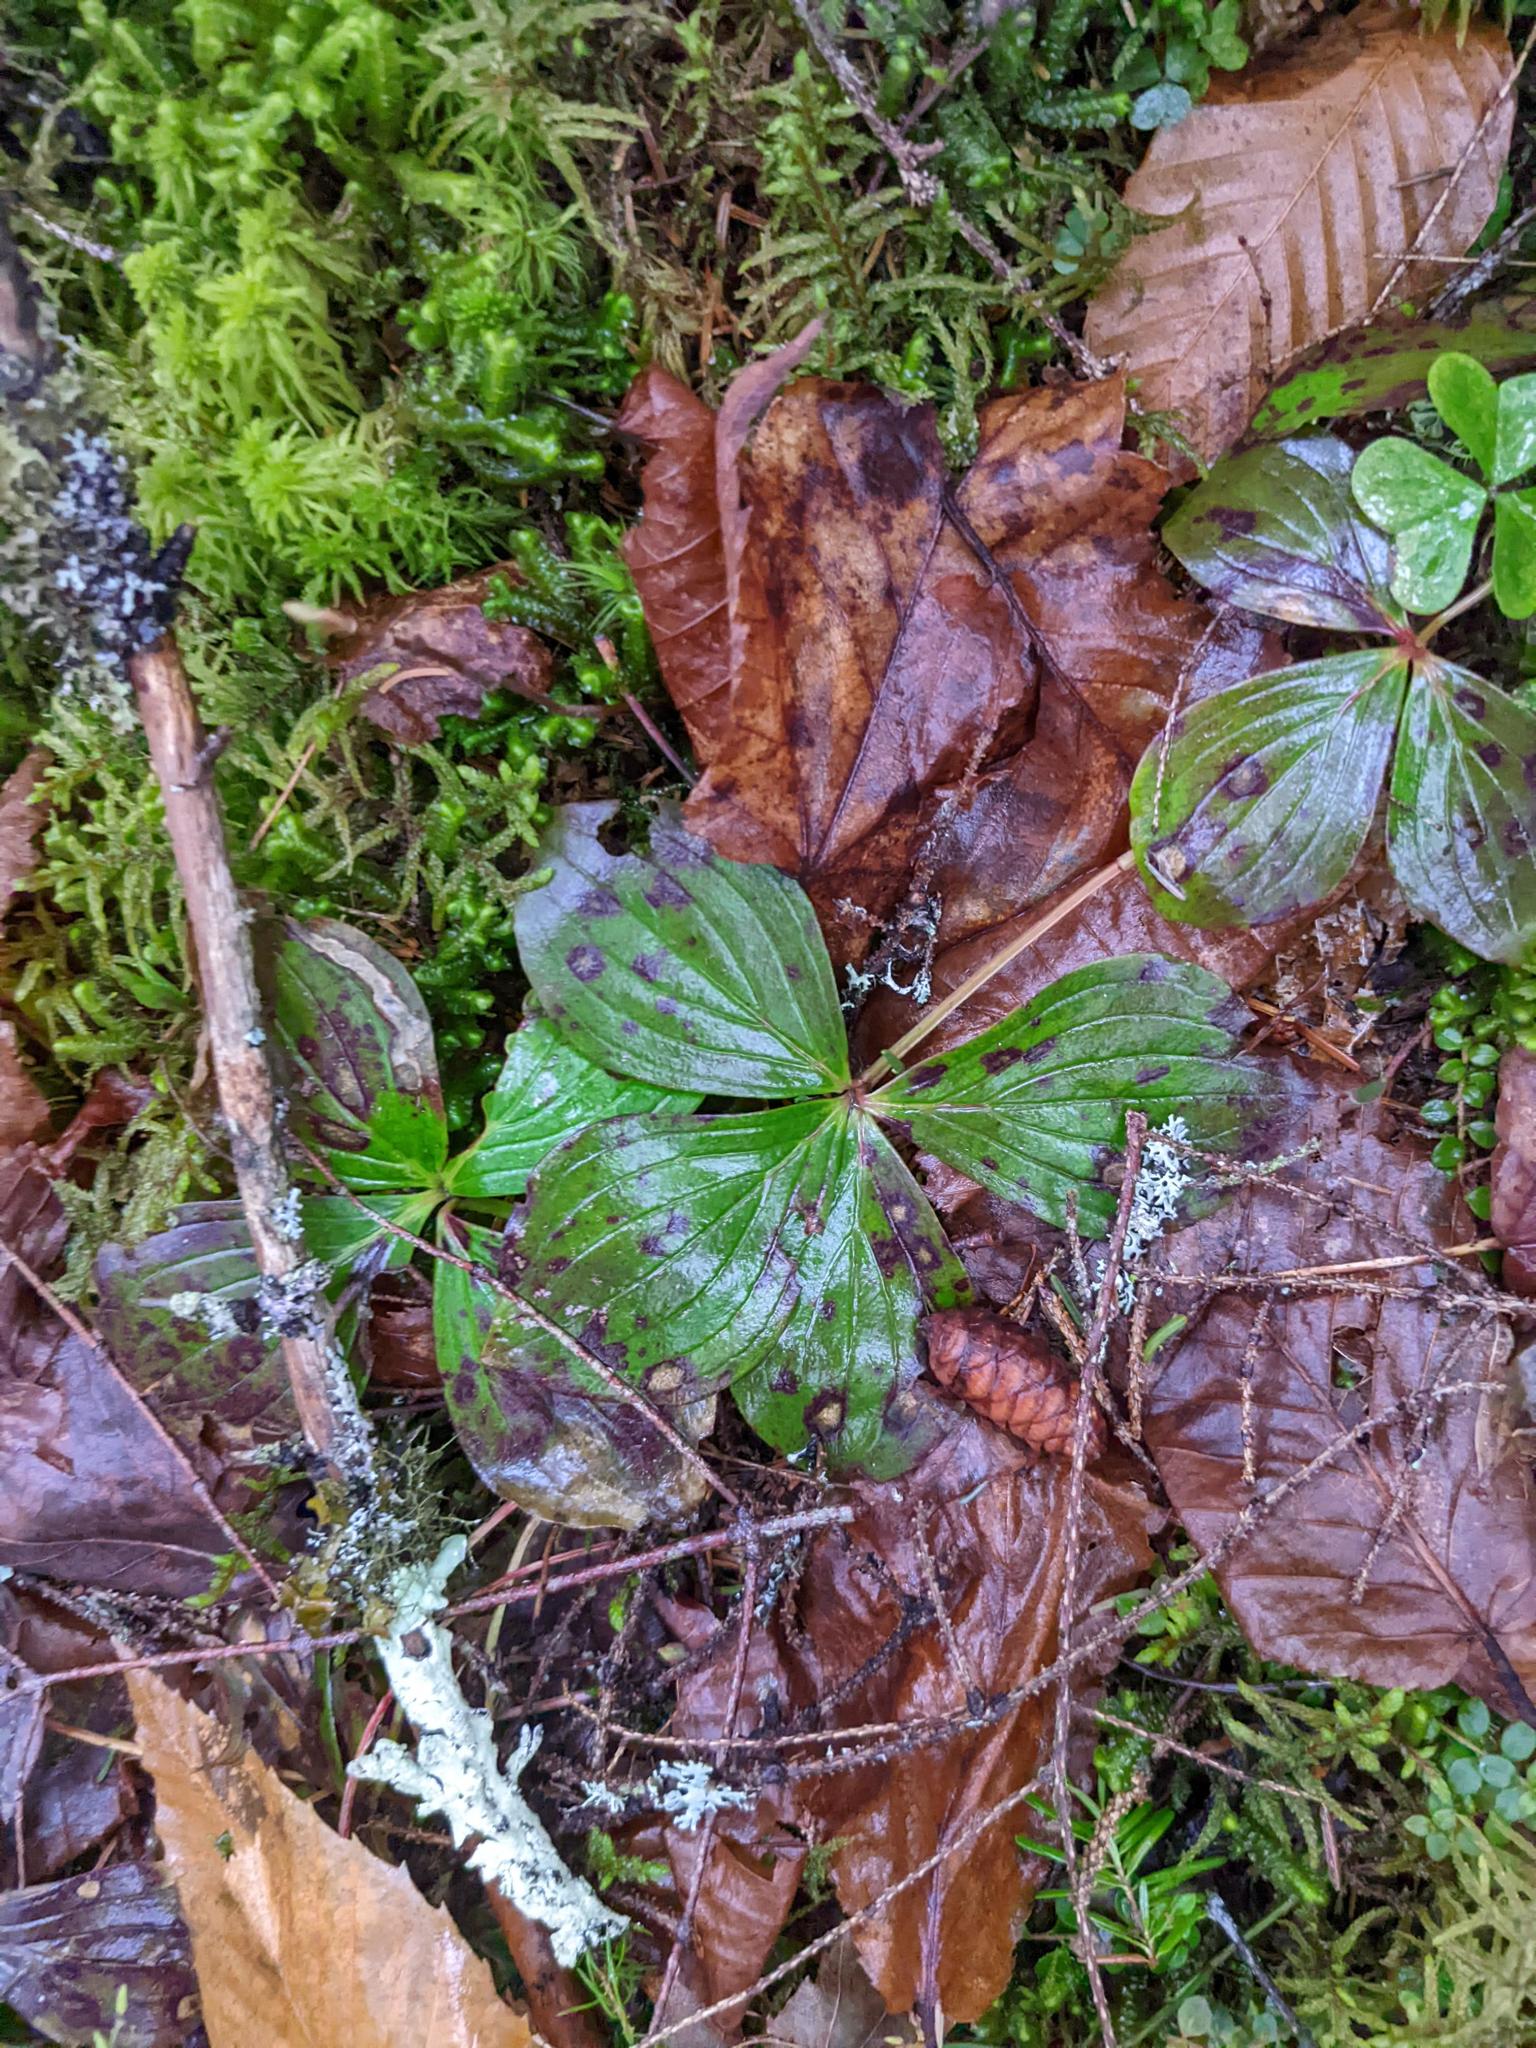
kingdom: Plantae
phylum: Tracheophyta
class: Magnoliopsida
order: Cornales
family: Cornaceae
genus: Cornus
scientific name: Cornus canadensis
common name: Creeping dogwood
